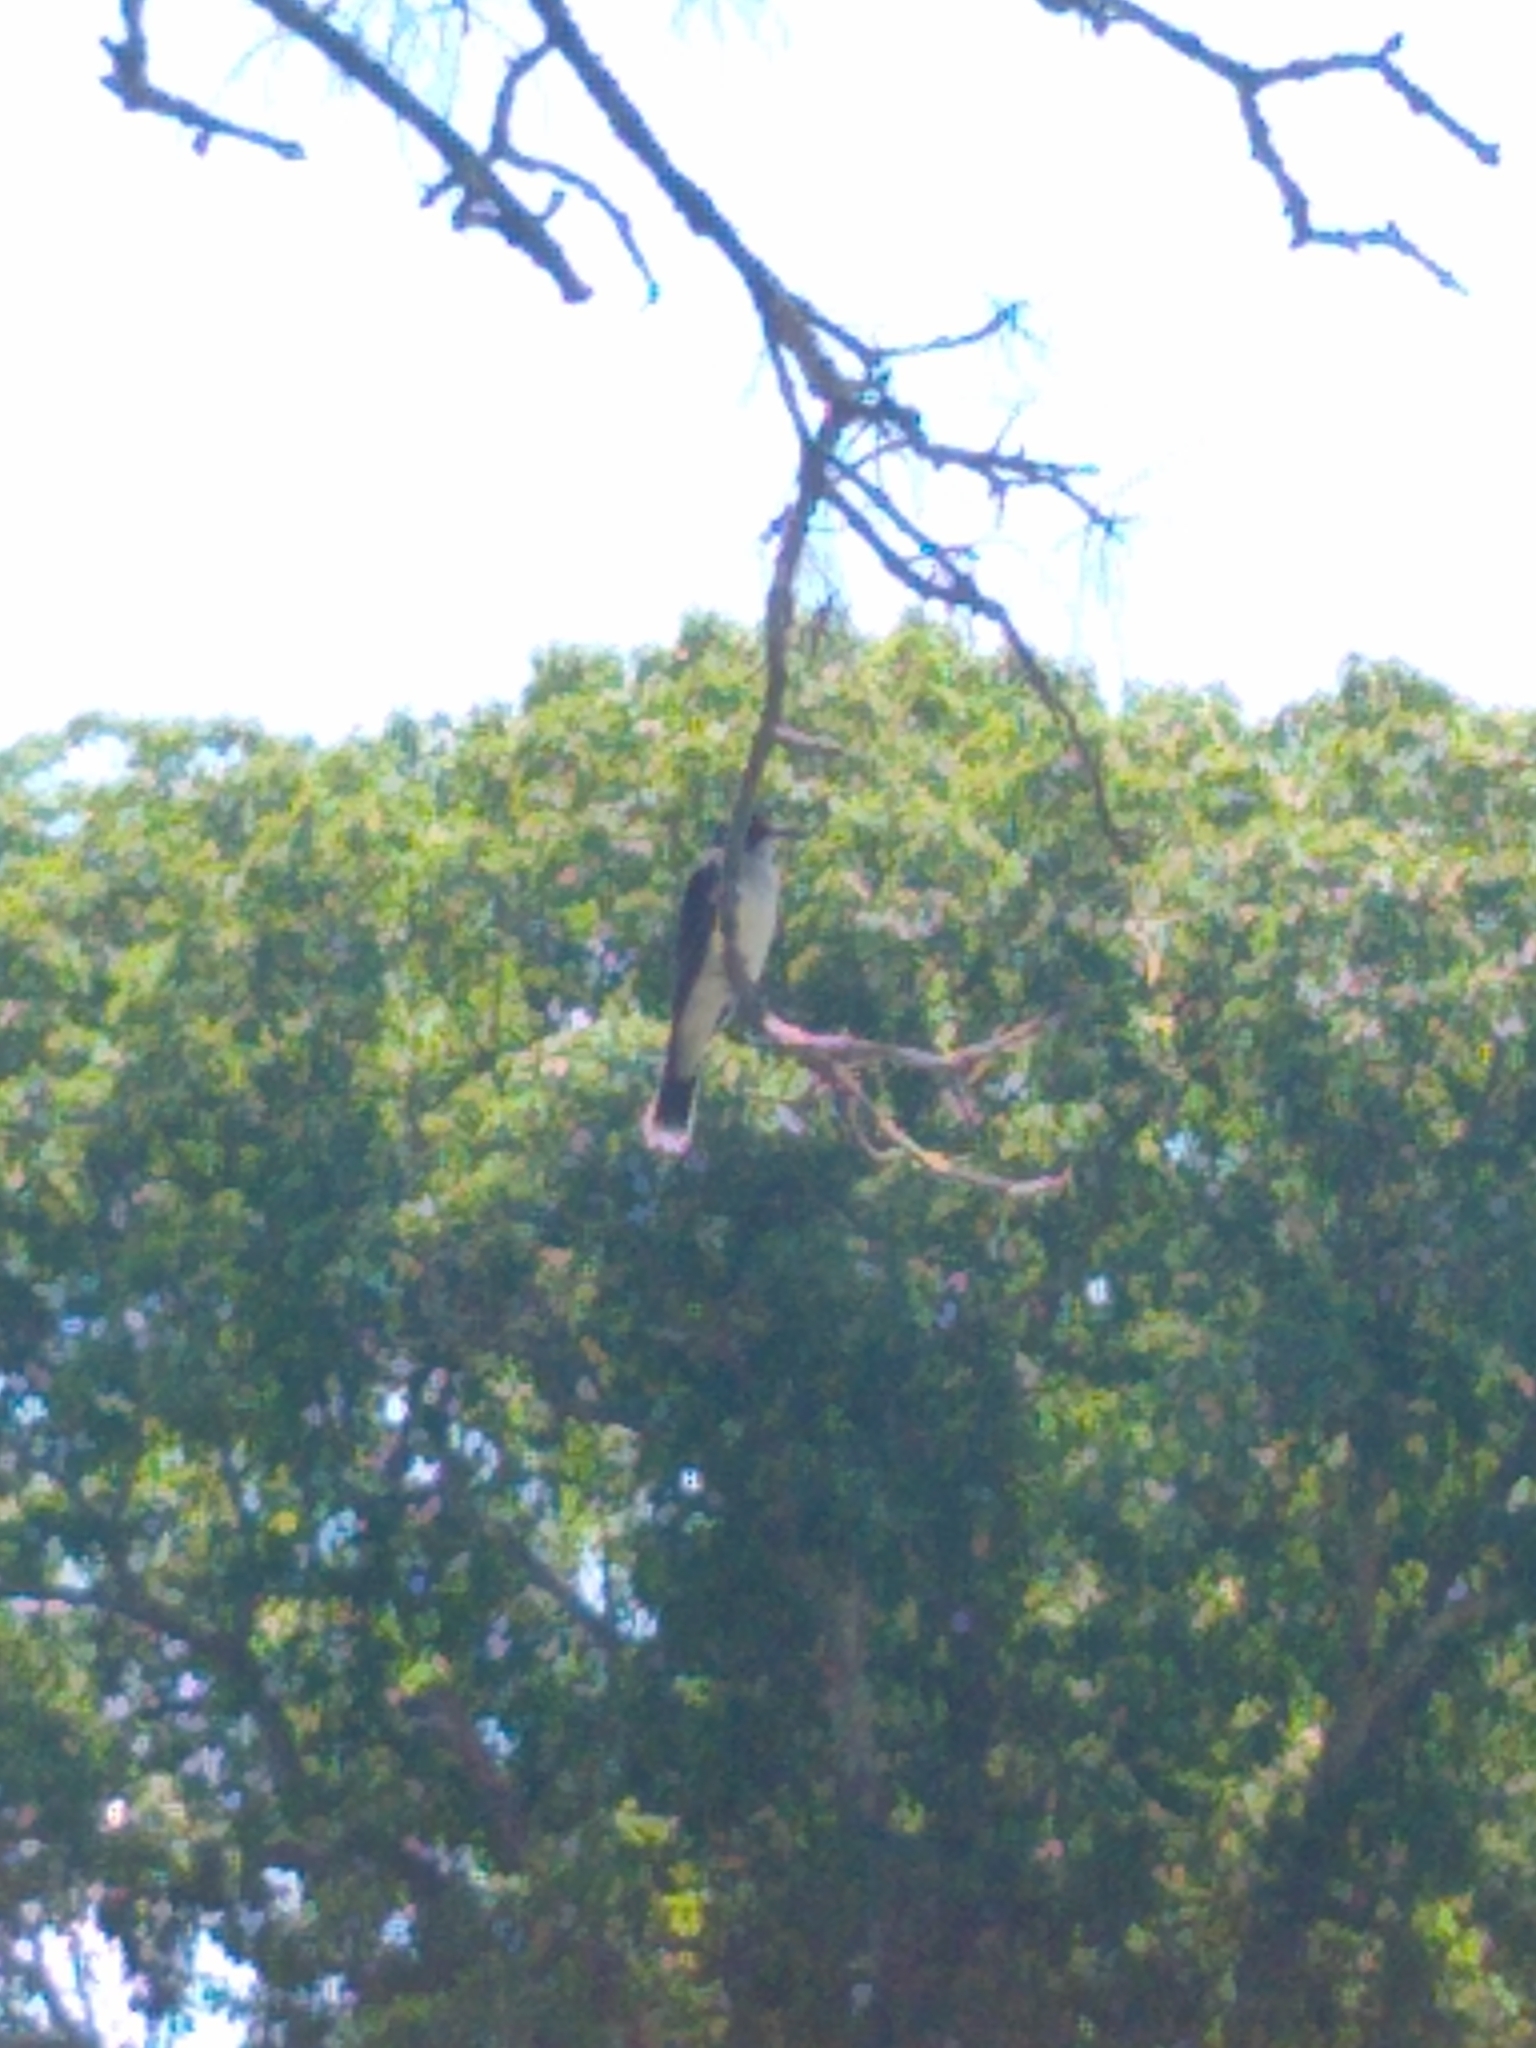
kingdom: Animalia
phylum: Chordata
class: Aves
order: Passeriformes
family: Tyrannidae
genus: Tyrannus
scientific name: Tyrannus tyrannus
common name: Eastern kingbird
